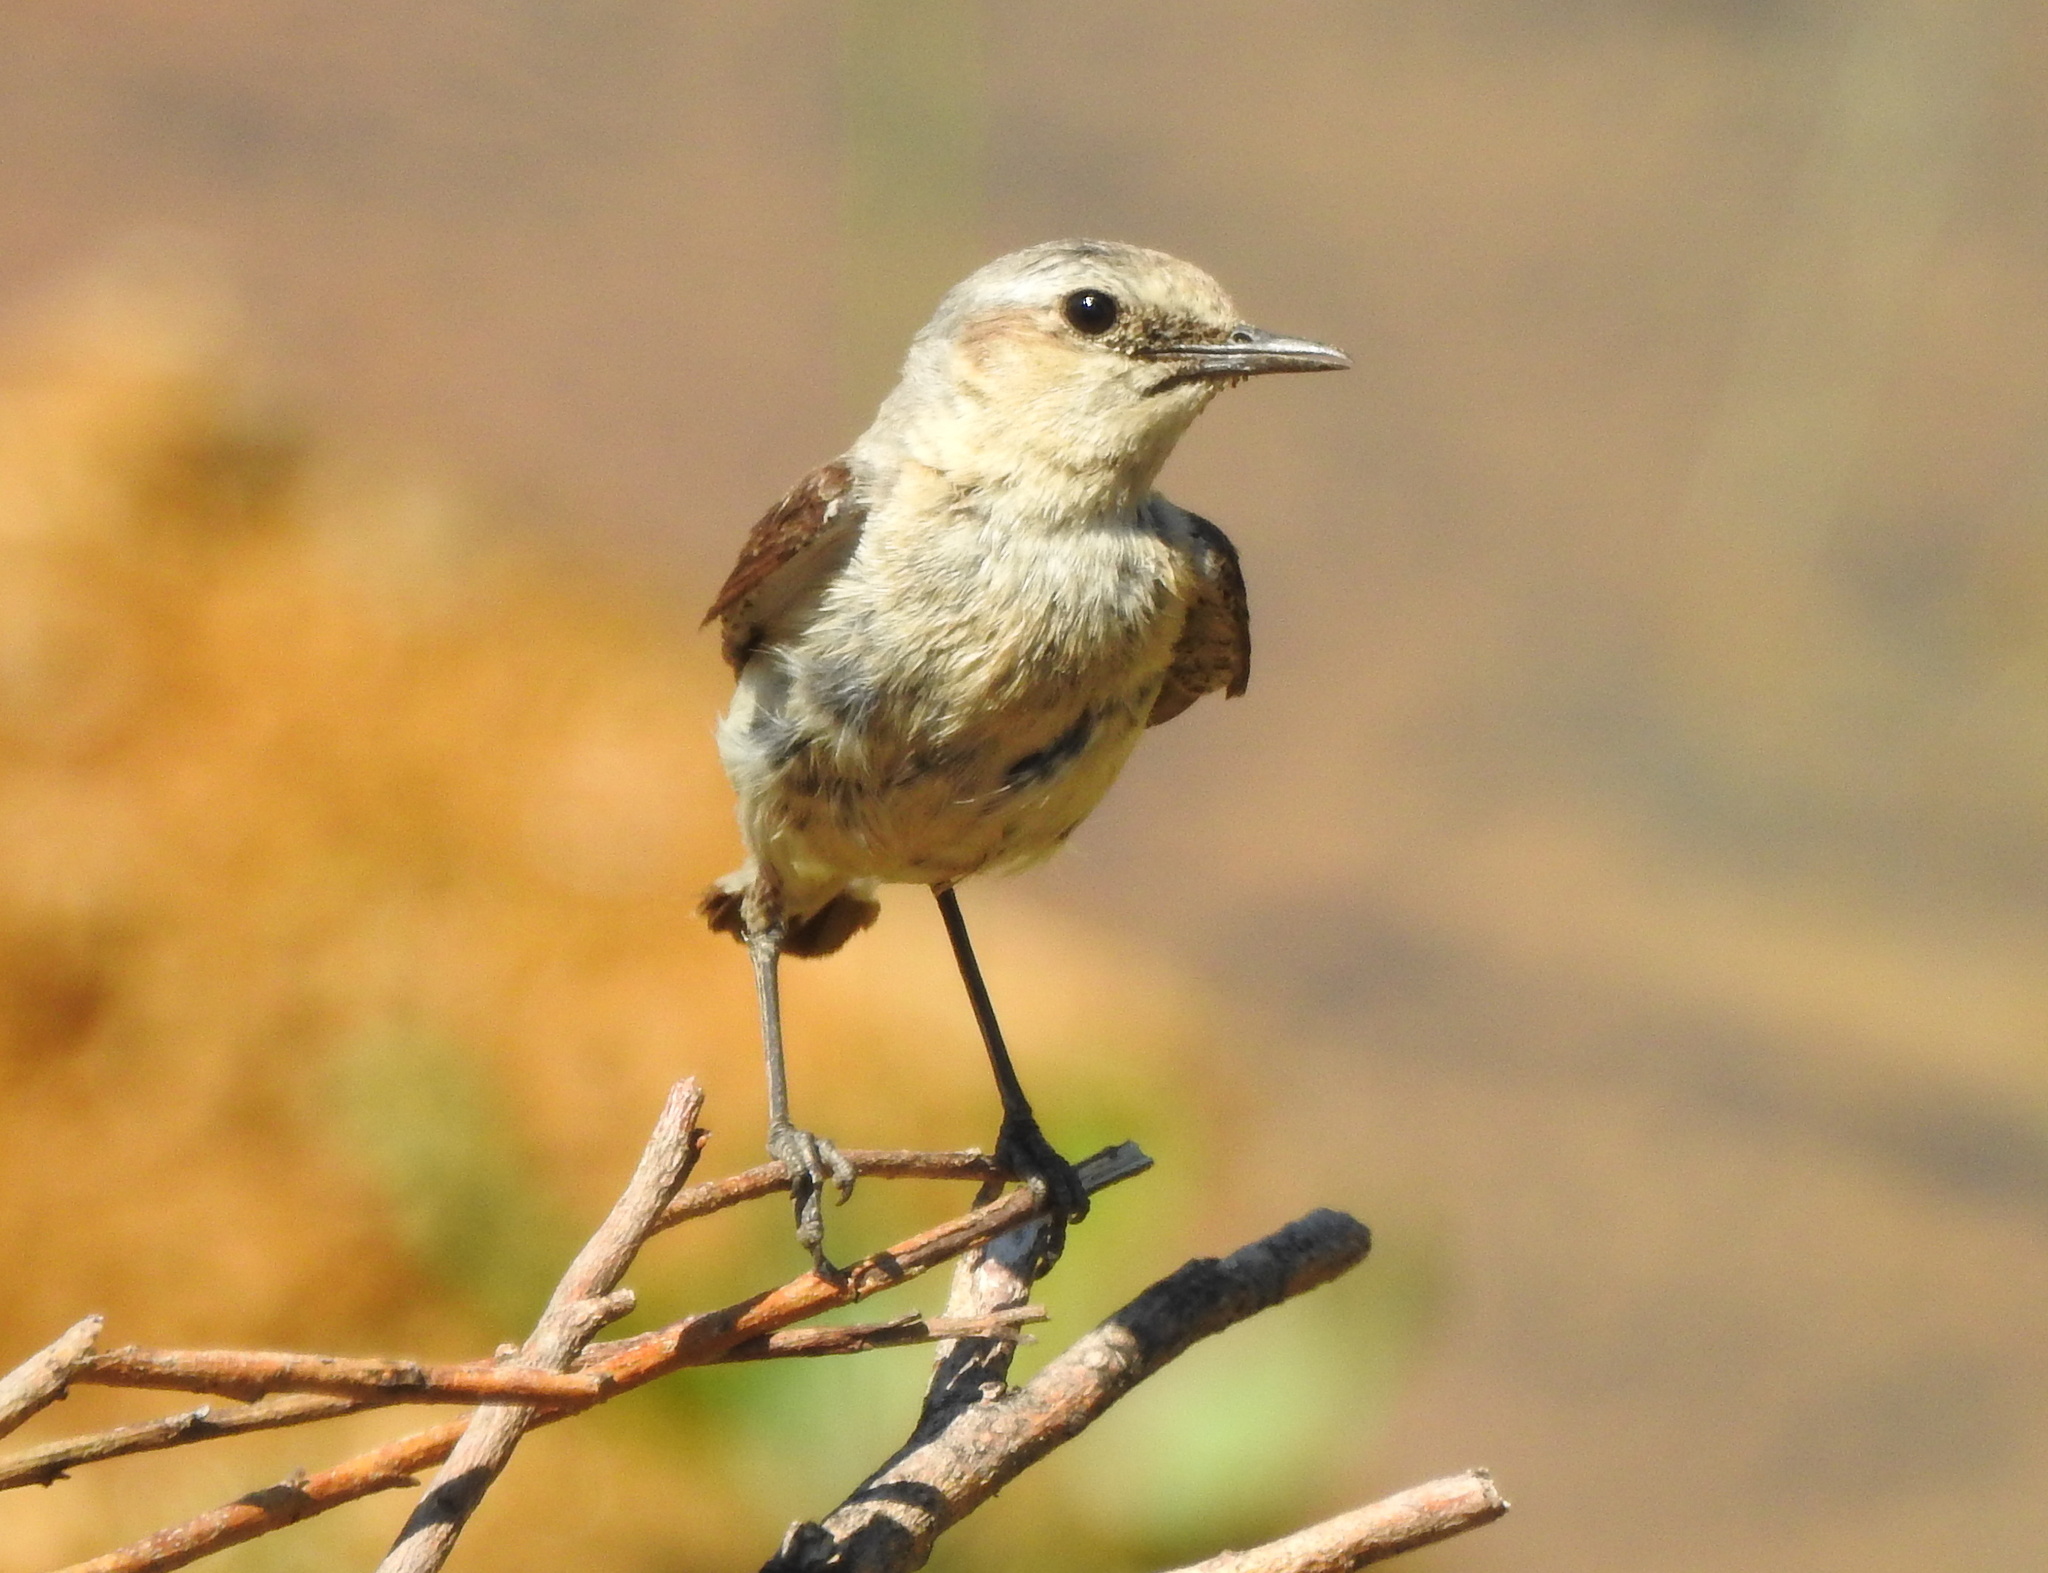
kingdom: Animalia
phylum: Chordata
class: Aves
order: Passeriformes
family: Muscicapidae
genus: Oenanthe
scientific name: Oenanthe oenanthe
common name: Northern wheatear
